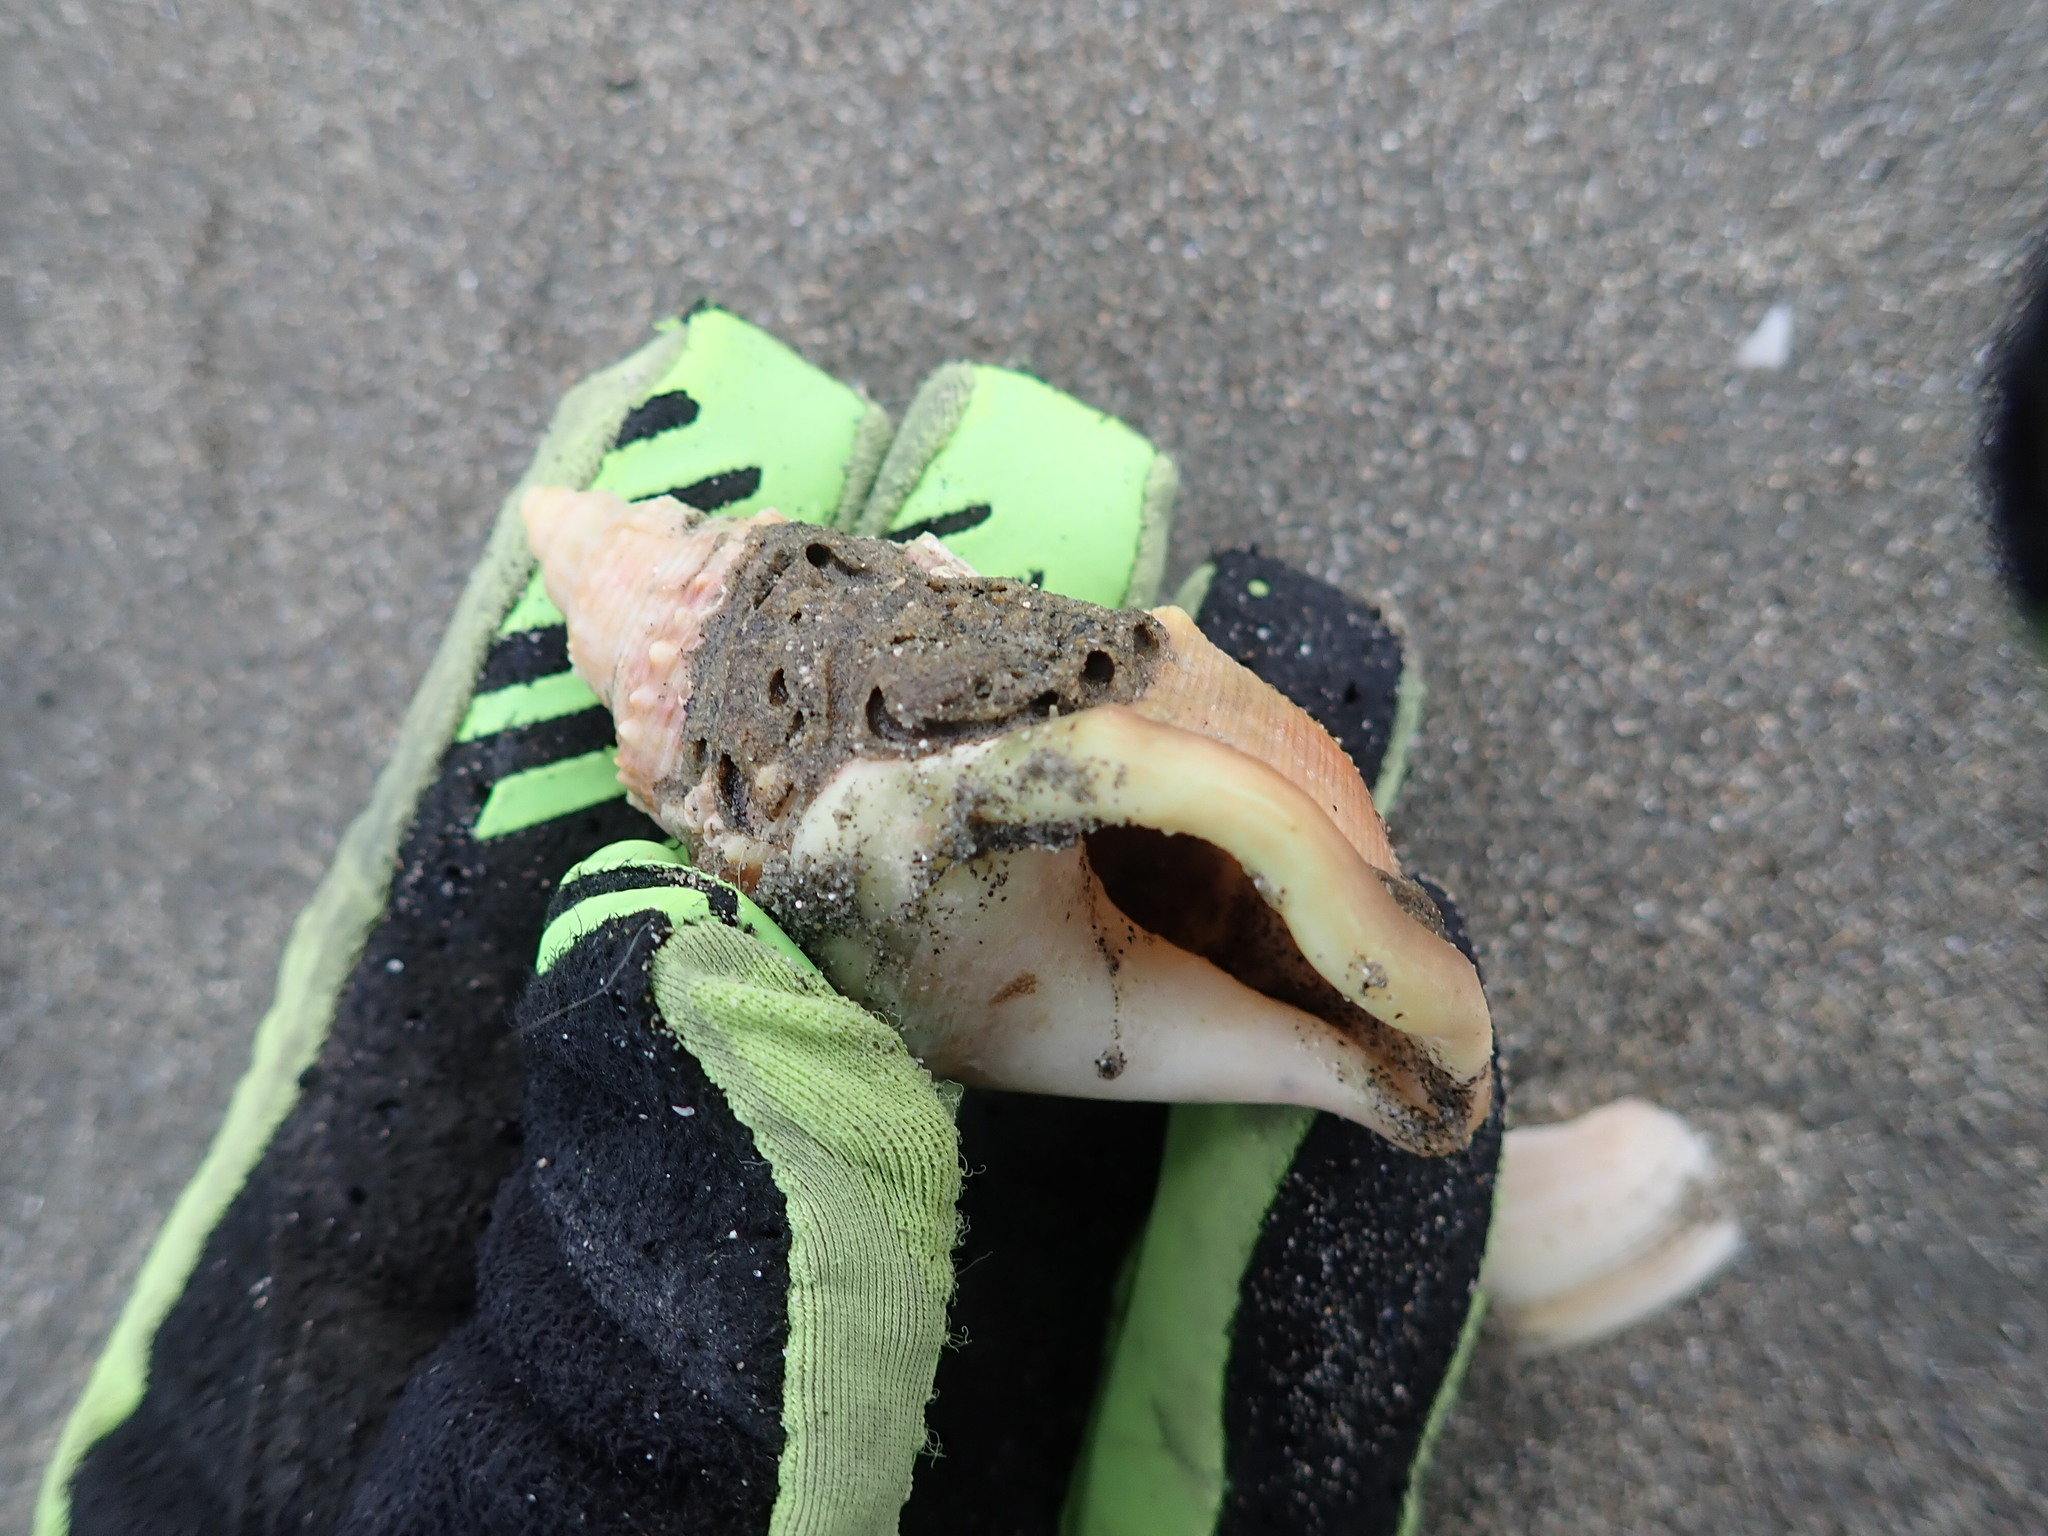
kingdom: Animalia
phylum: Mollusca
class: Gastropoda
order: Littorinimorpha
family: Struthiolariidae
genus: Struthiolaria
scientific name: Struthiolaria papulosa
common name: Large ostrich foot
